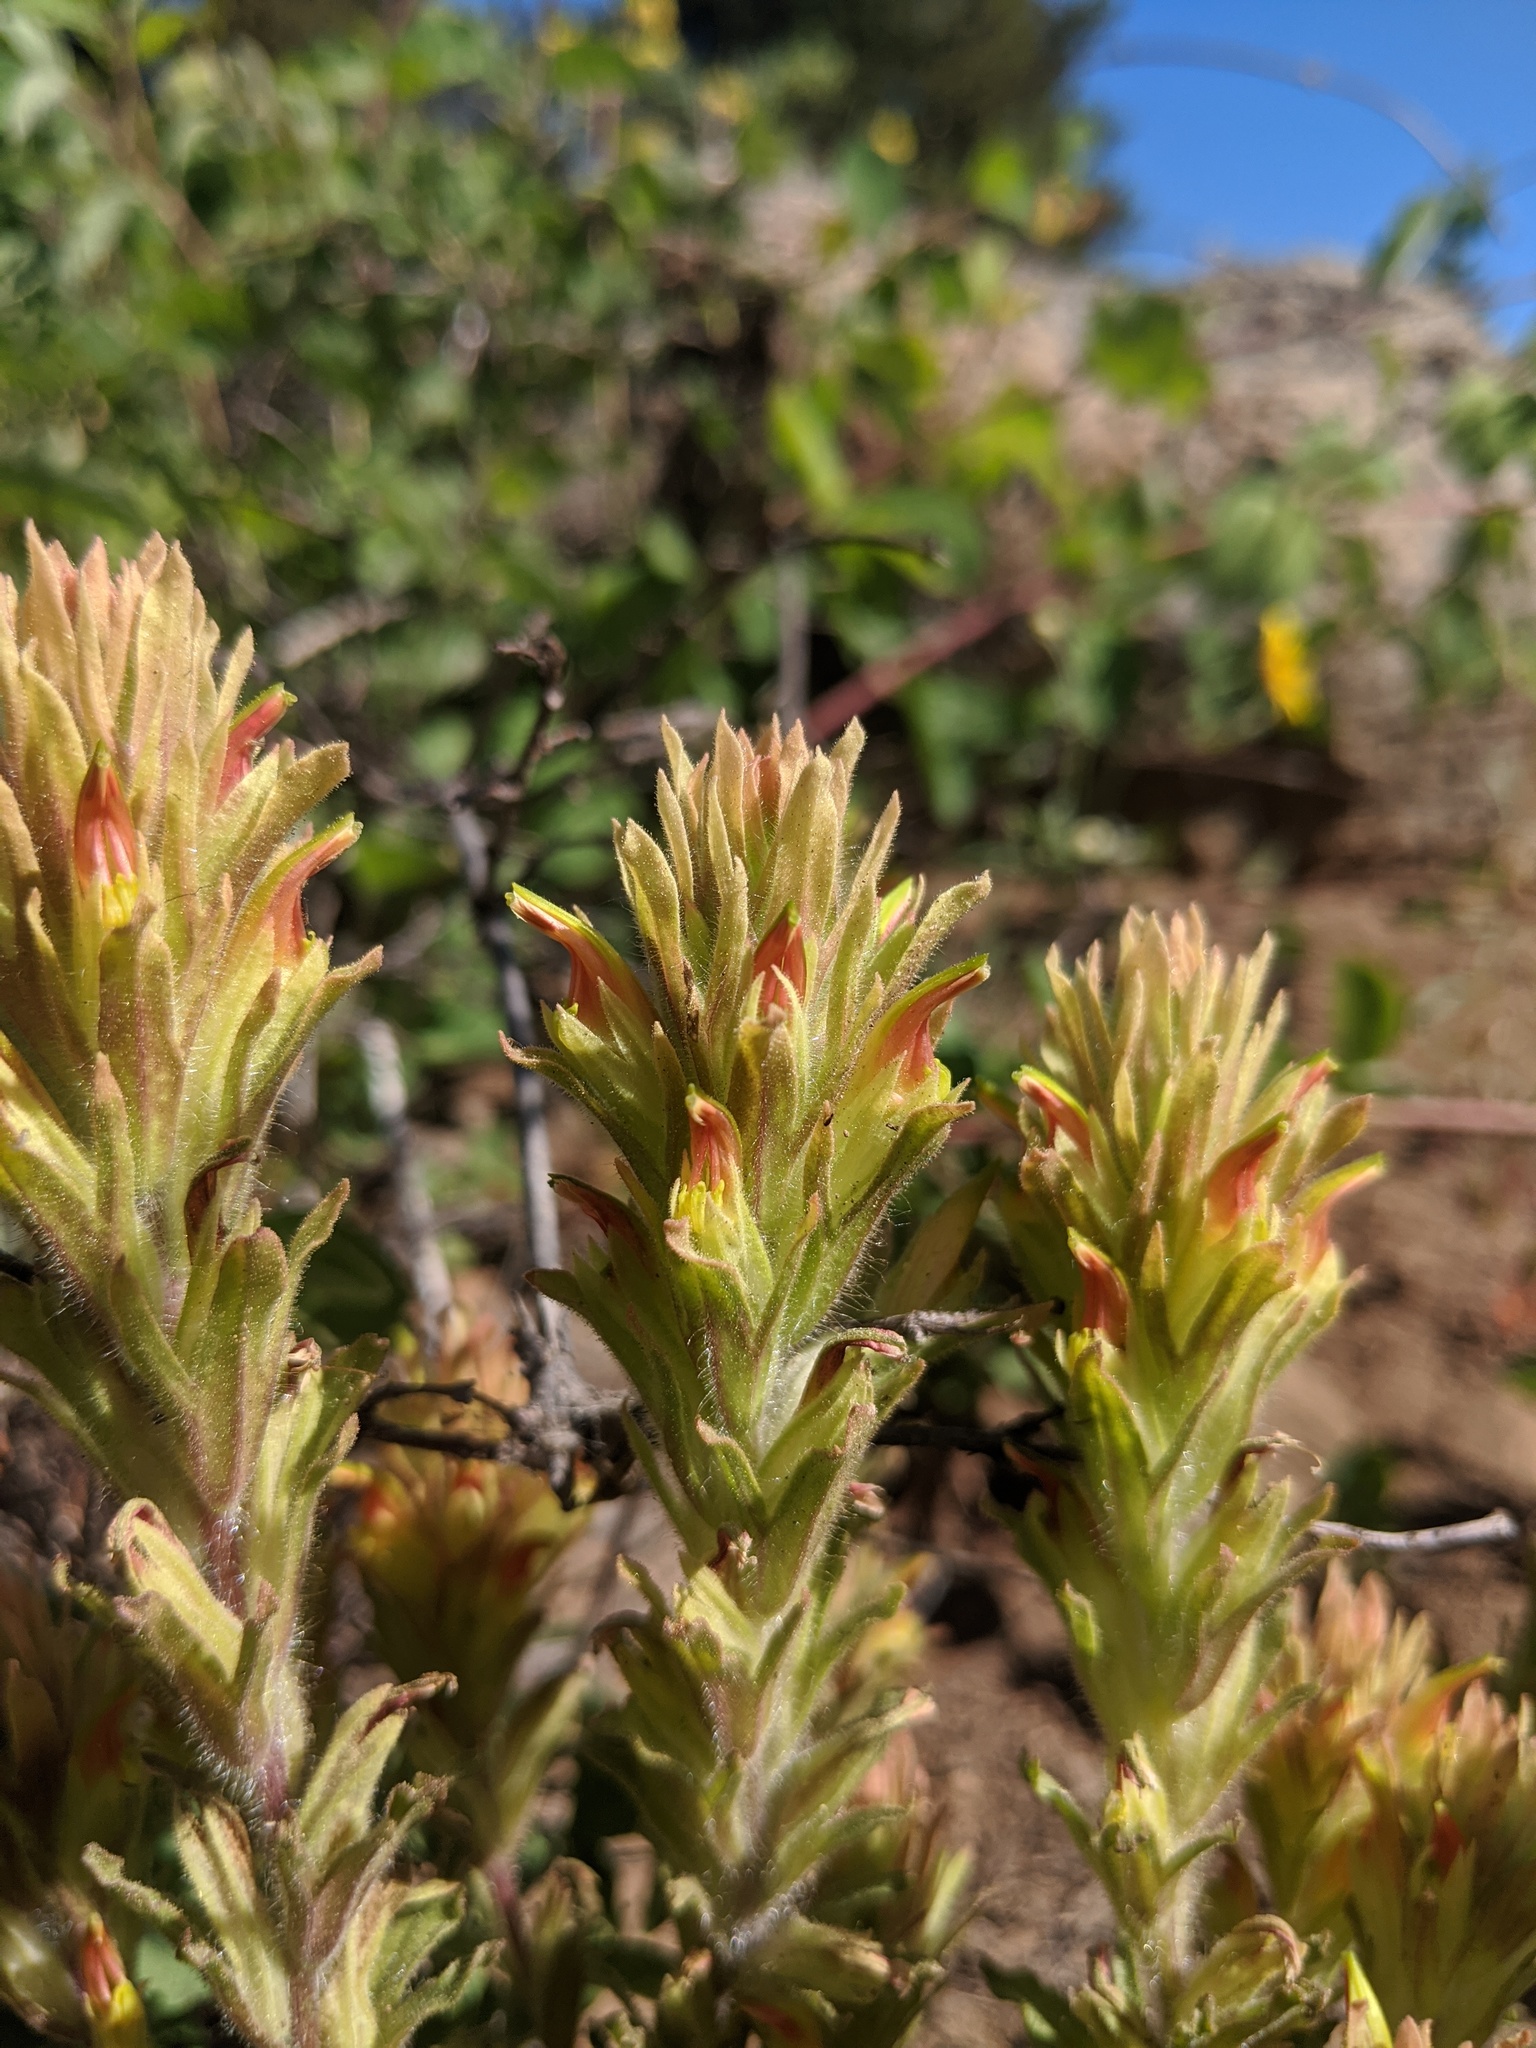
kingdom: Plantae
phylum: Tracheophyta
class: Magnoliopsida
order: Lamiales
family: Orobanchaceae
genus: Castilleja
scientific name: Castilleja chlorotica
